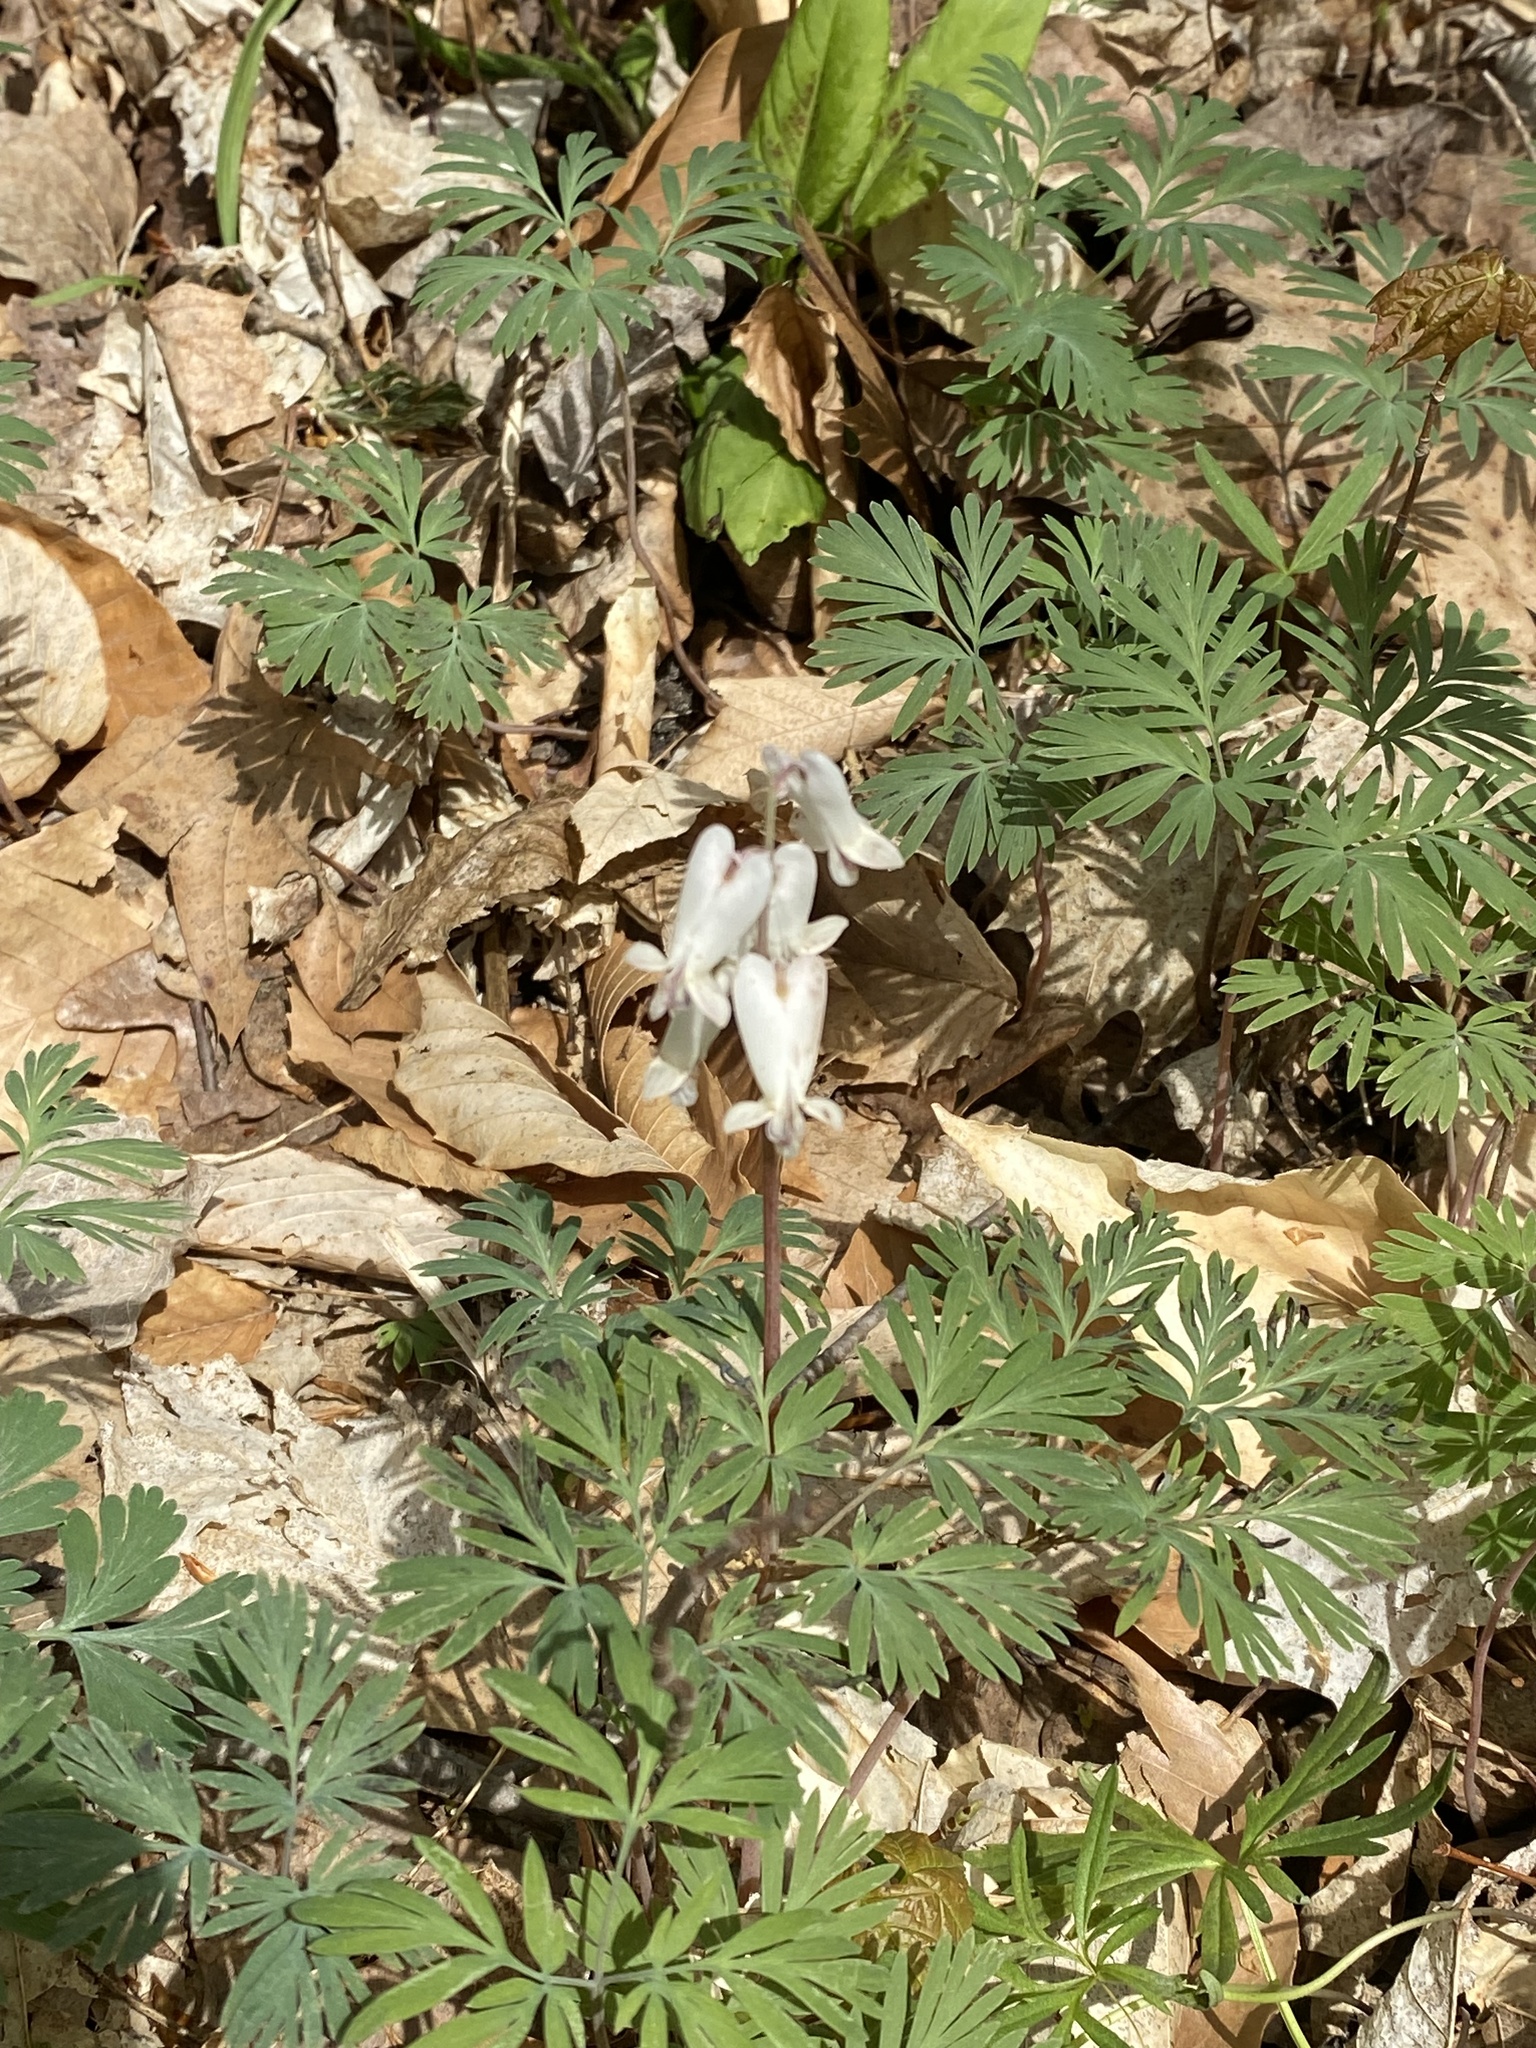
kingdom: Plantae
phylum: Tracheophyta
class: Magnoliopsida
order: Ranunculales
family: Papaveraceae
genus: Dicentra
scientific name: Dicentra canadensis
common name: Squirrel-corn
